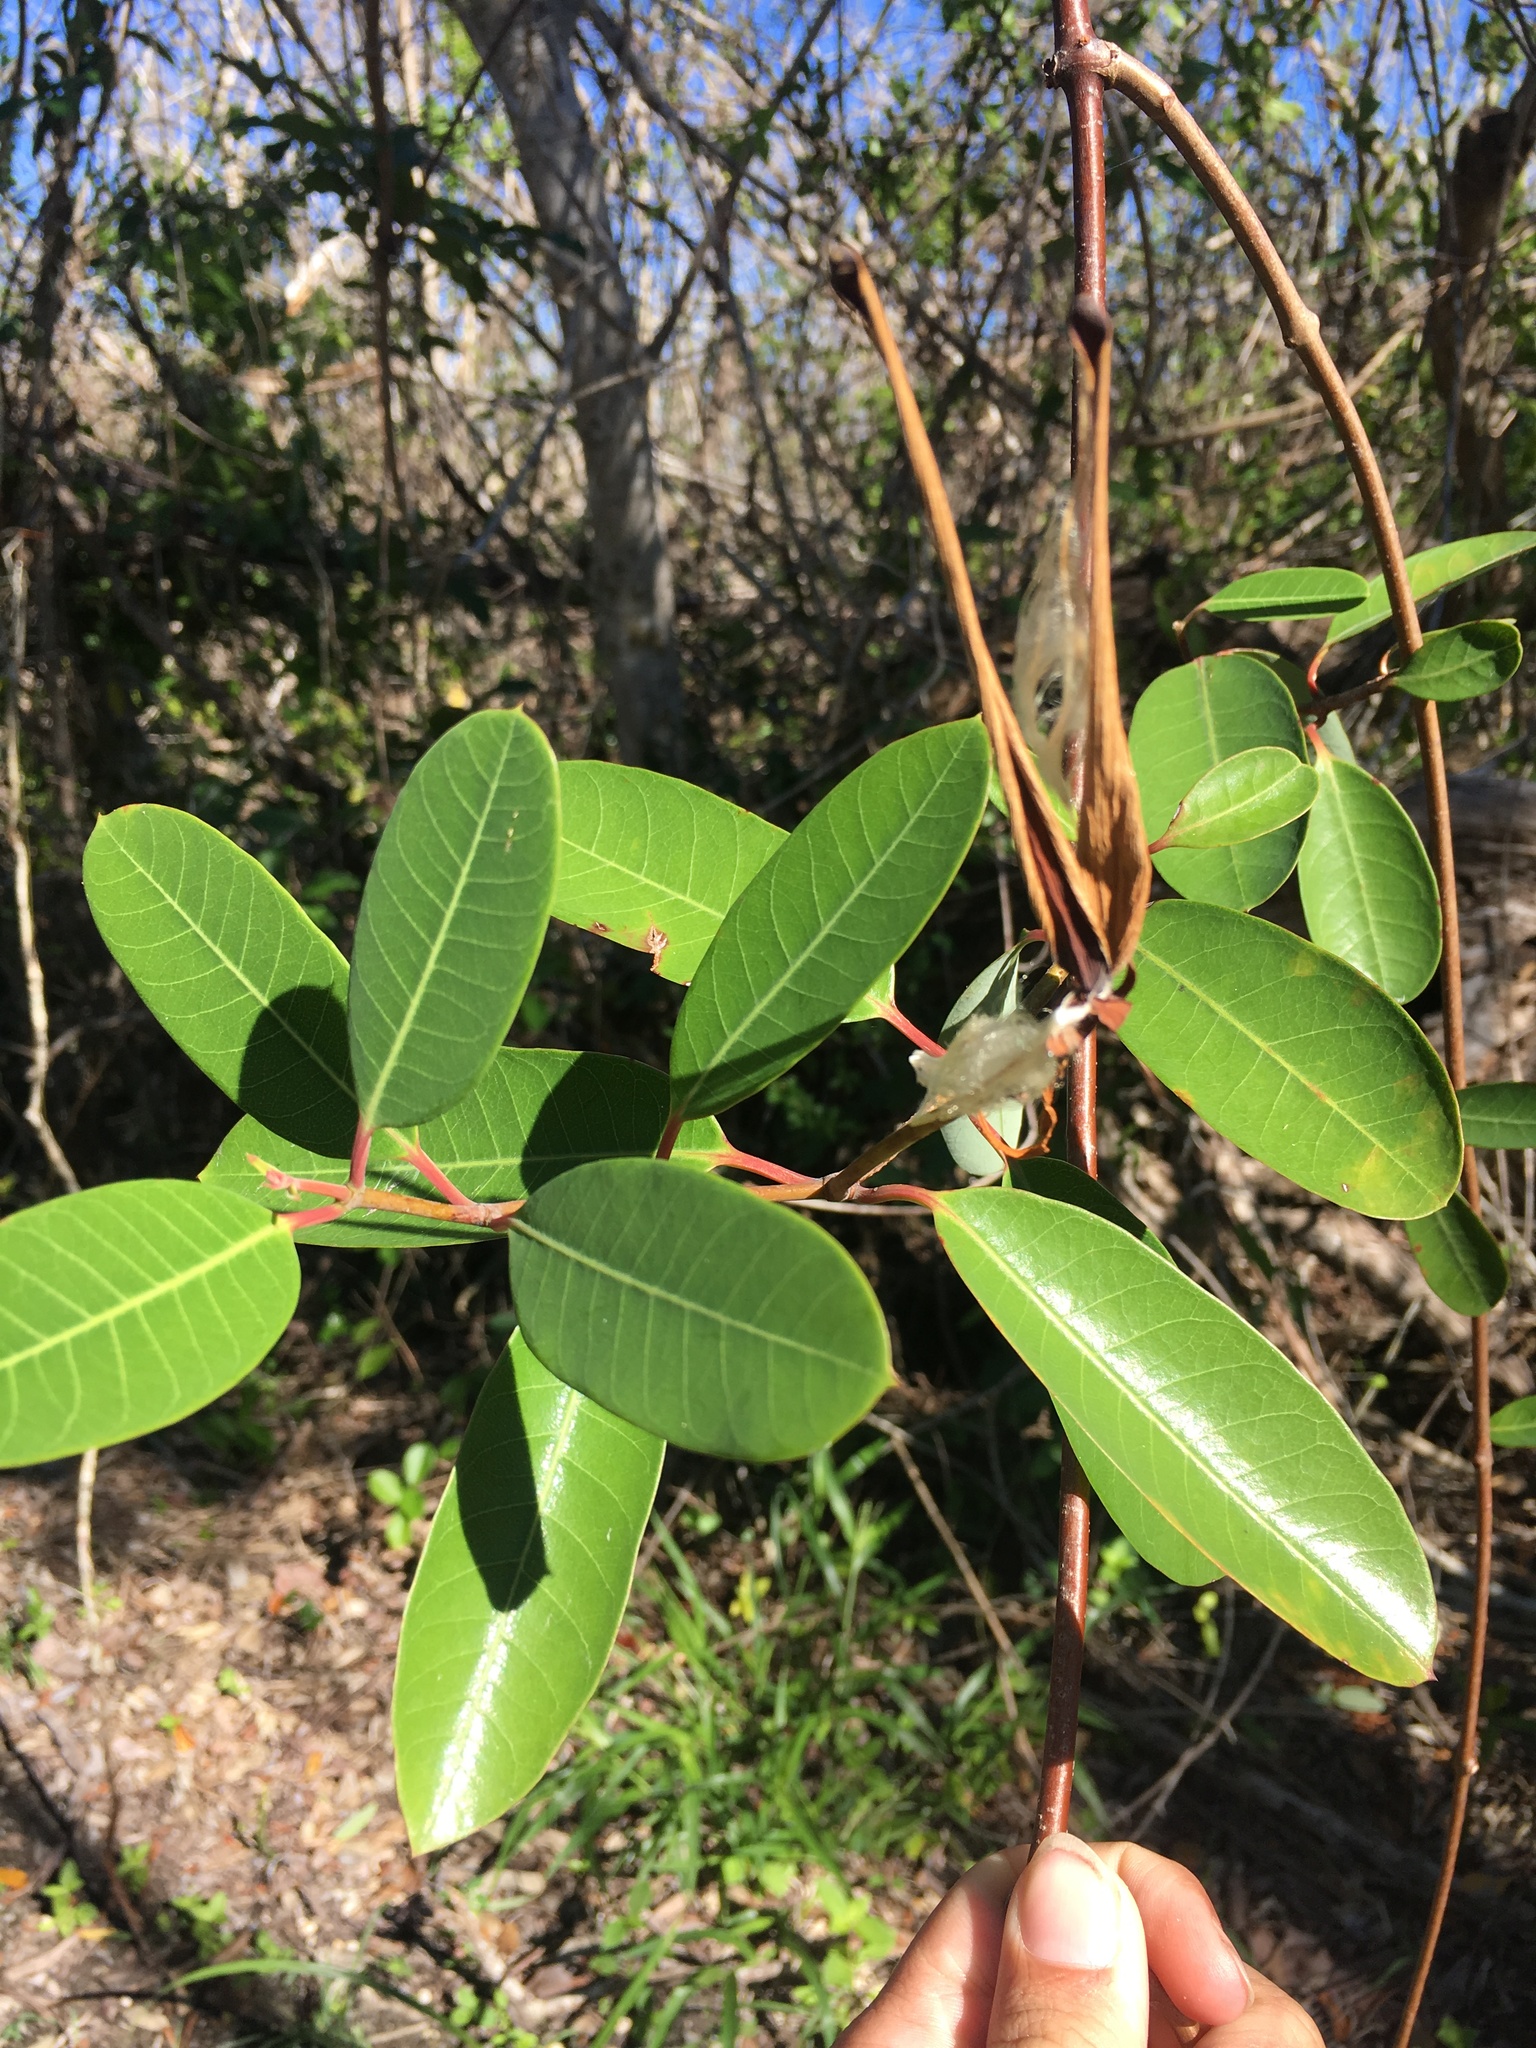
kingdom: Plantae
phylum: Tracheophyta
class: Magnoliopsida
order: Gentianales
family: Apocynaceae
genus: Rhabdadenia
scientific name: Rhabdadenia biflora
